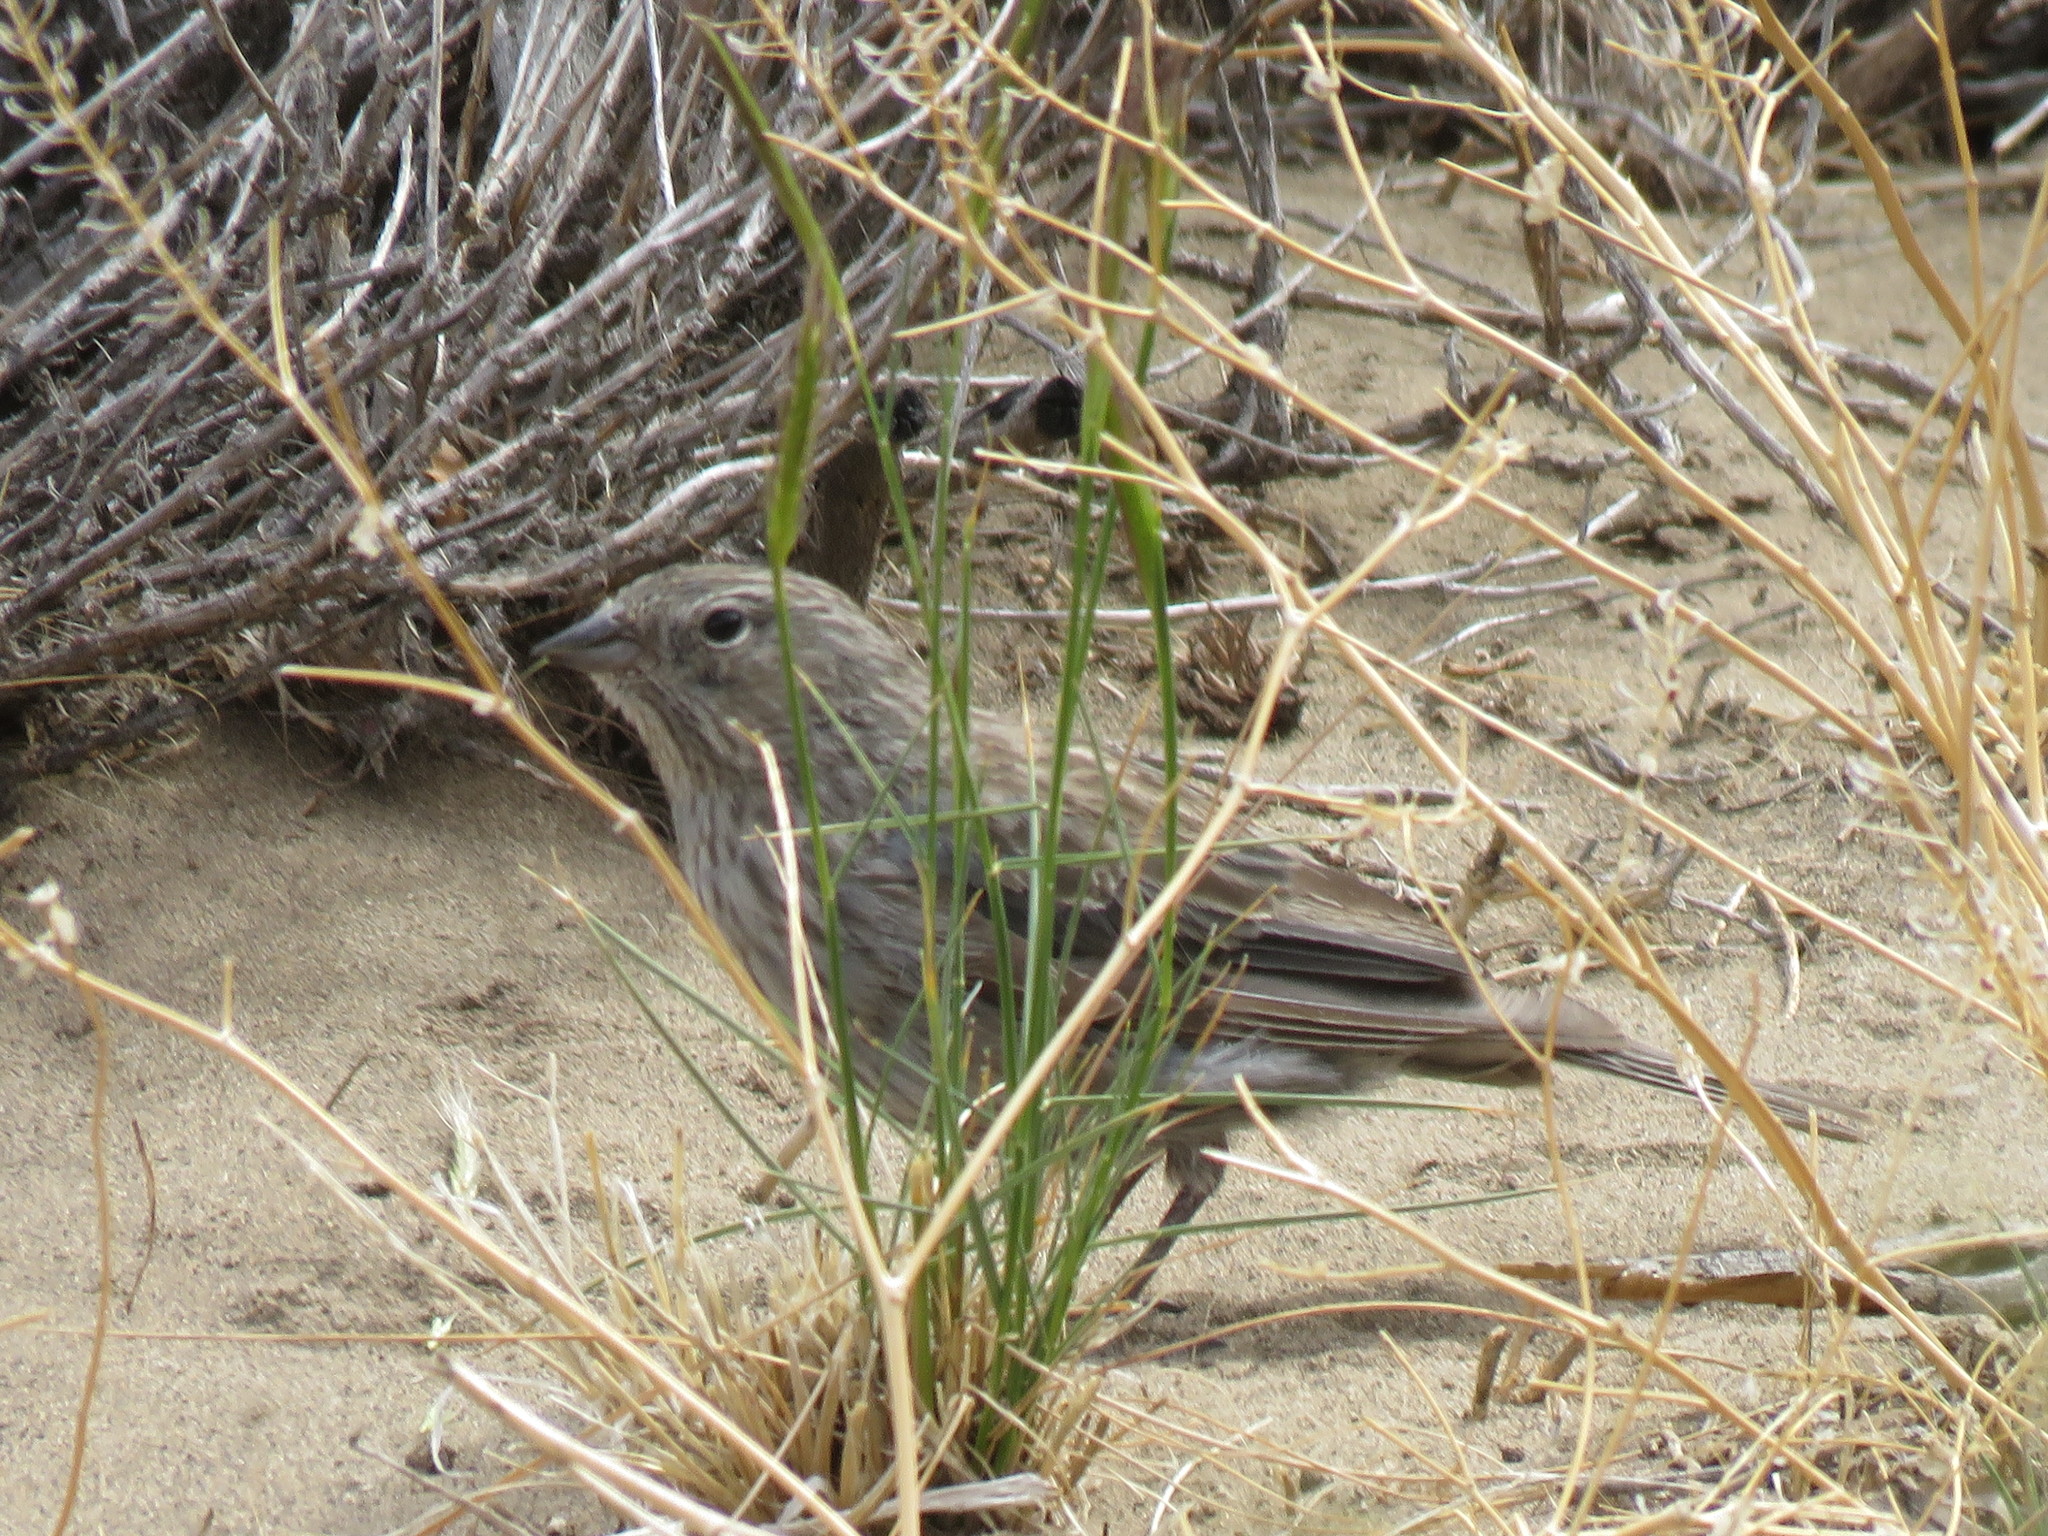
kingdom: Animalia
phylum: Chordata
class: Aves
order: Passeriformes
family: Thraupidae
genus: Geospizopsis
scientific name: Geospizopsis unicolor
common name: Plumbeous sierra-finch
